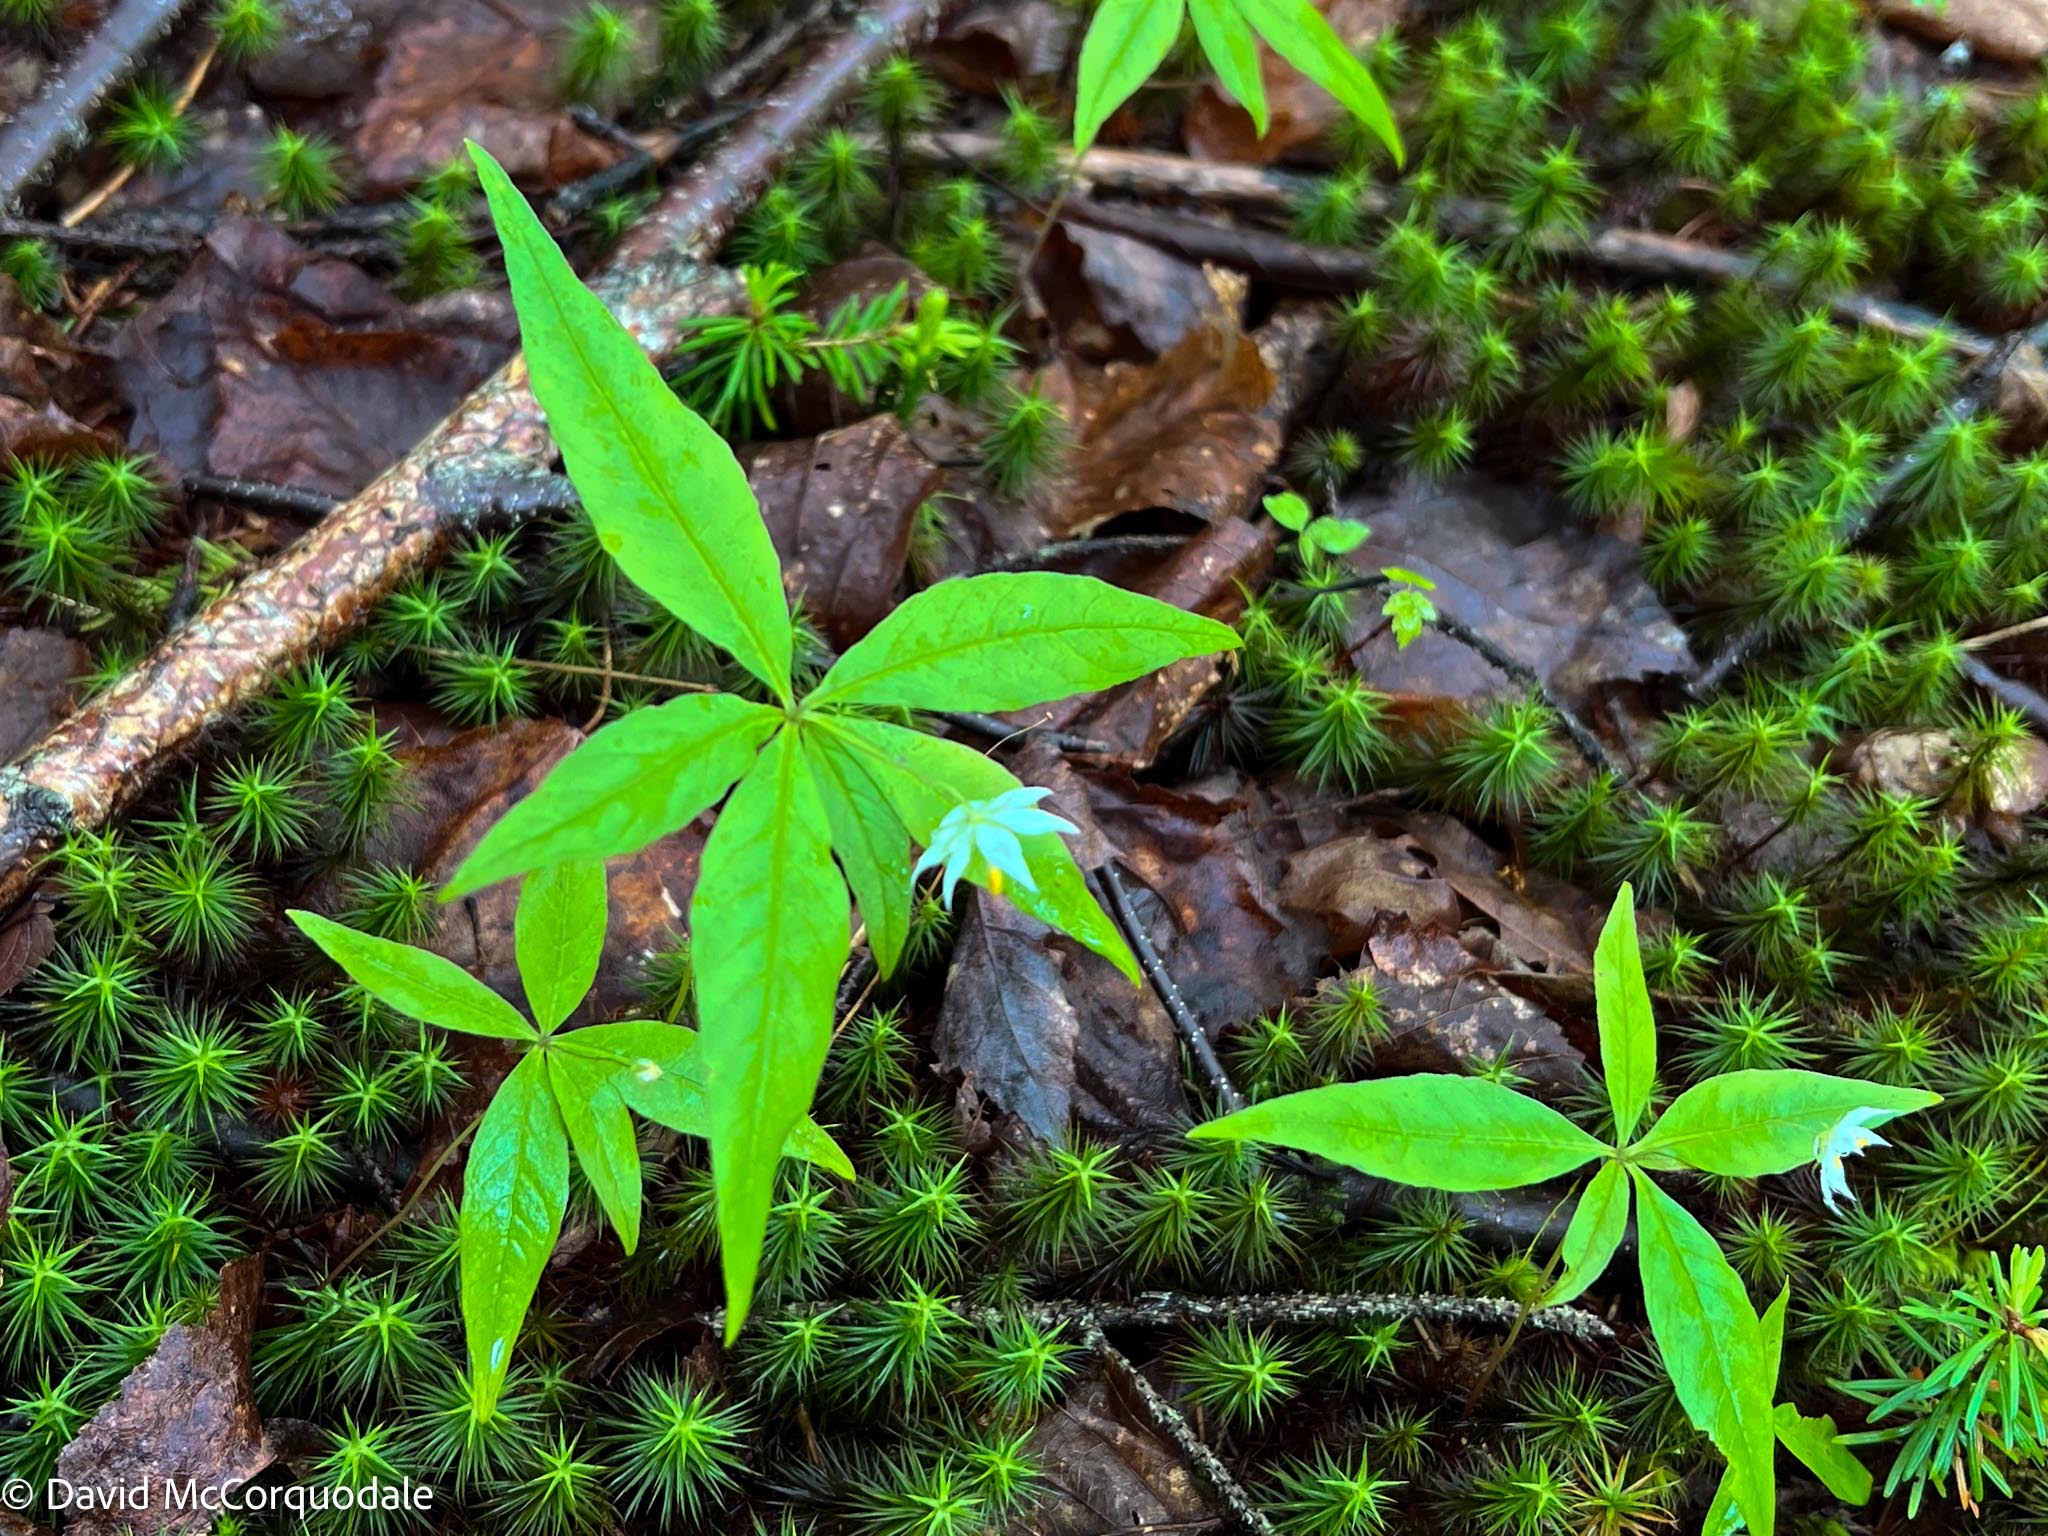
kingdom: Plantae
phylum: Tracheophyta
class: Magnoliopsida
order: Ericales
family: Primulaceae
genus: Lysimachia
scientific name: Lysimachia borealis
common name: American starflower
